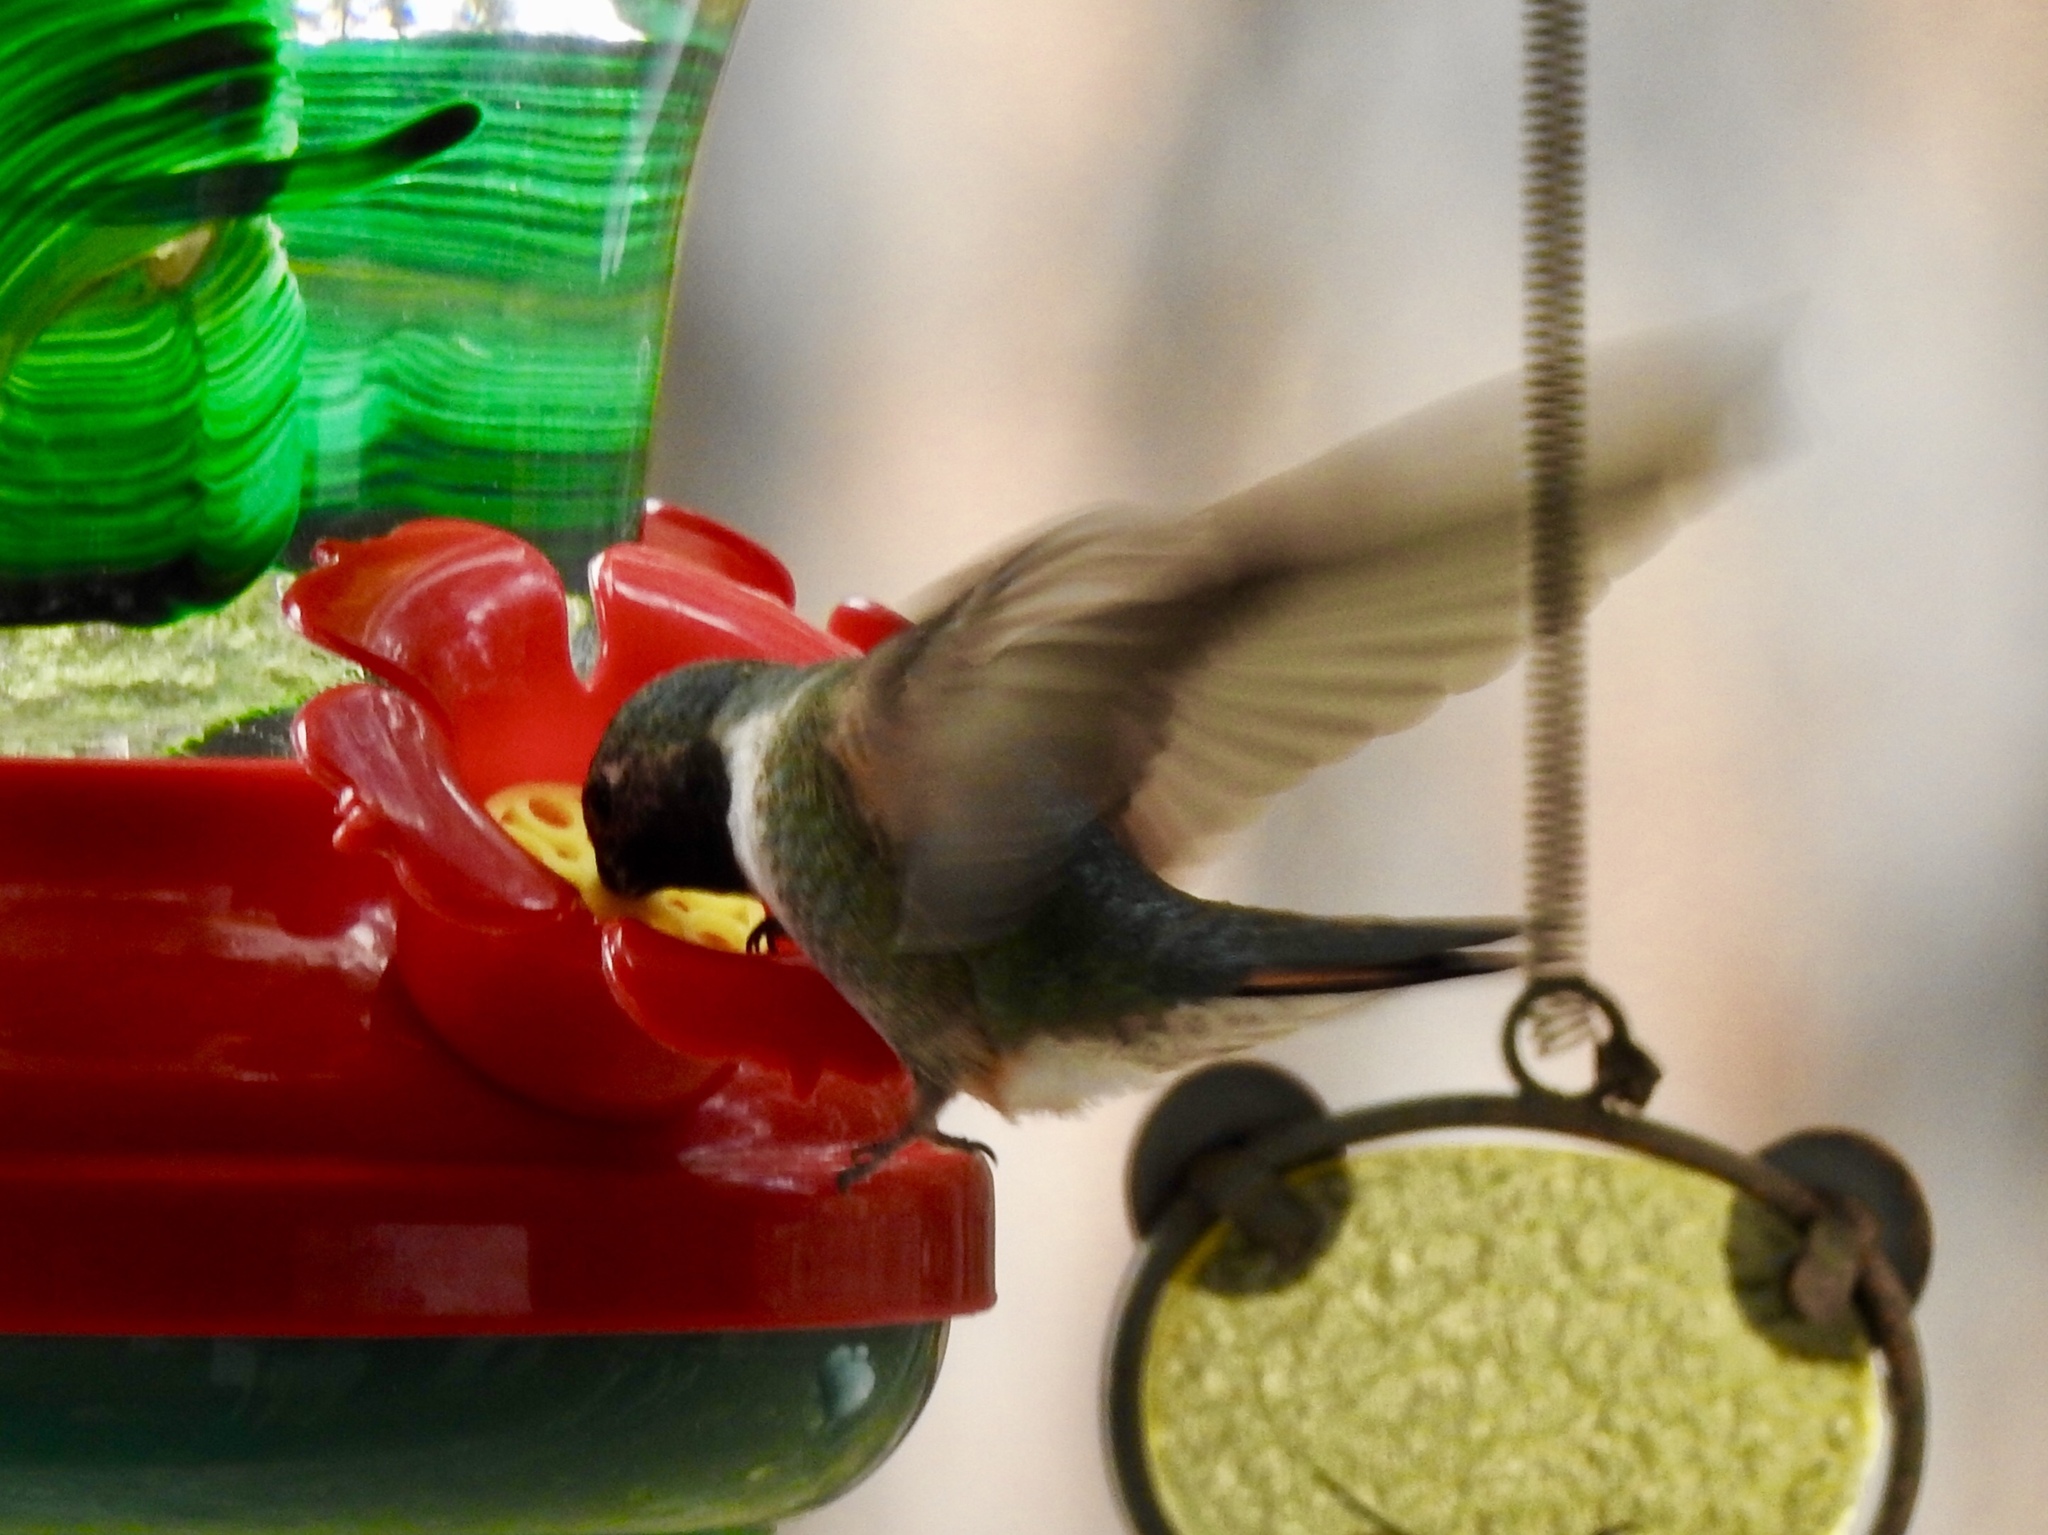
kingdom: Animalia
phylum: Chordata
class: Aves
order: Apodiformes
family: Trochilidae
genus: Selasphorus
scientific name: Selasphorus platycercus
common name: Broad-tailed hummingbird
